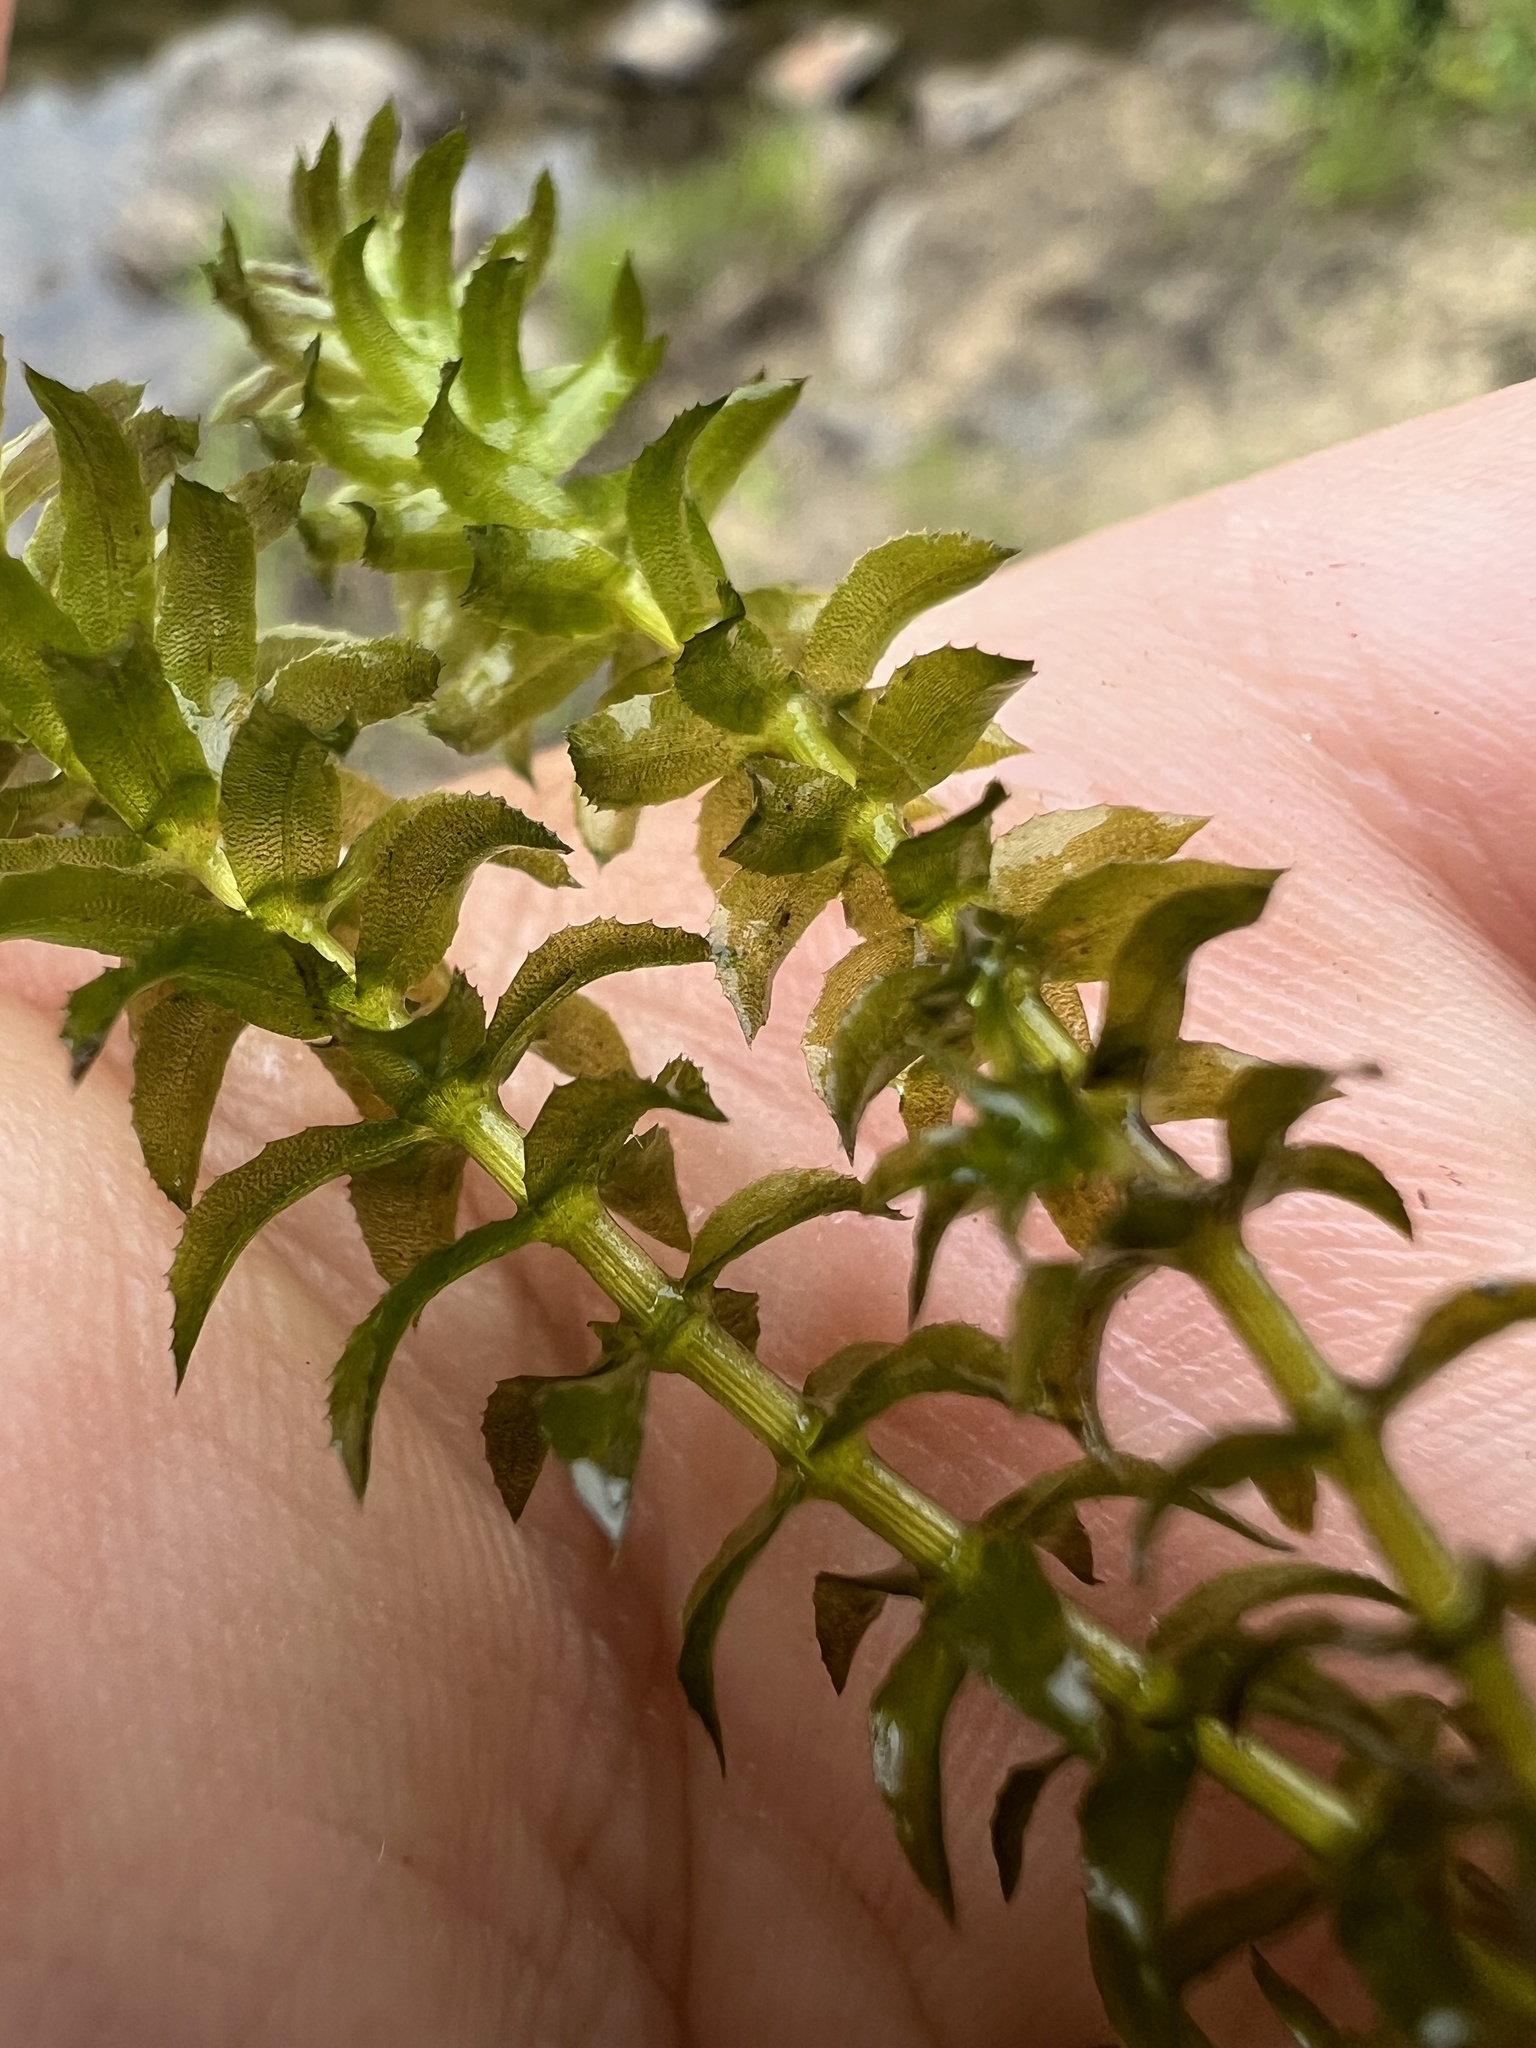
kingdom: Plantae
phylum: Tracheophyta
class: Liliopsida
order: Alismatales
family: Hydrocharitaceae
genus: Hydrilla
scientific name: Hydrilla verticillata
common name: Florida-elodea
